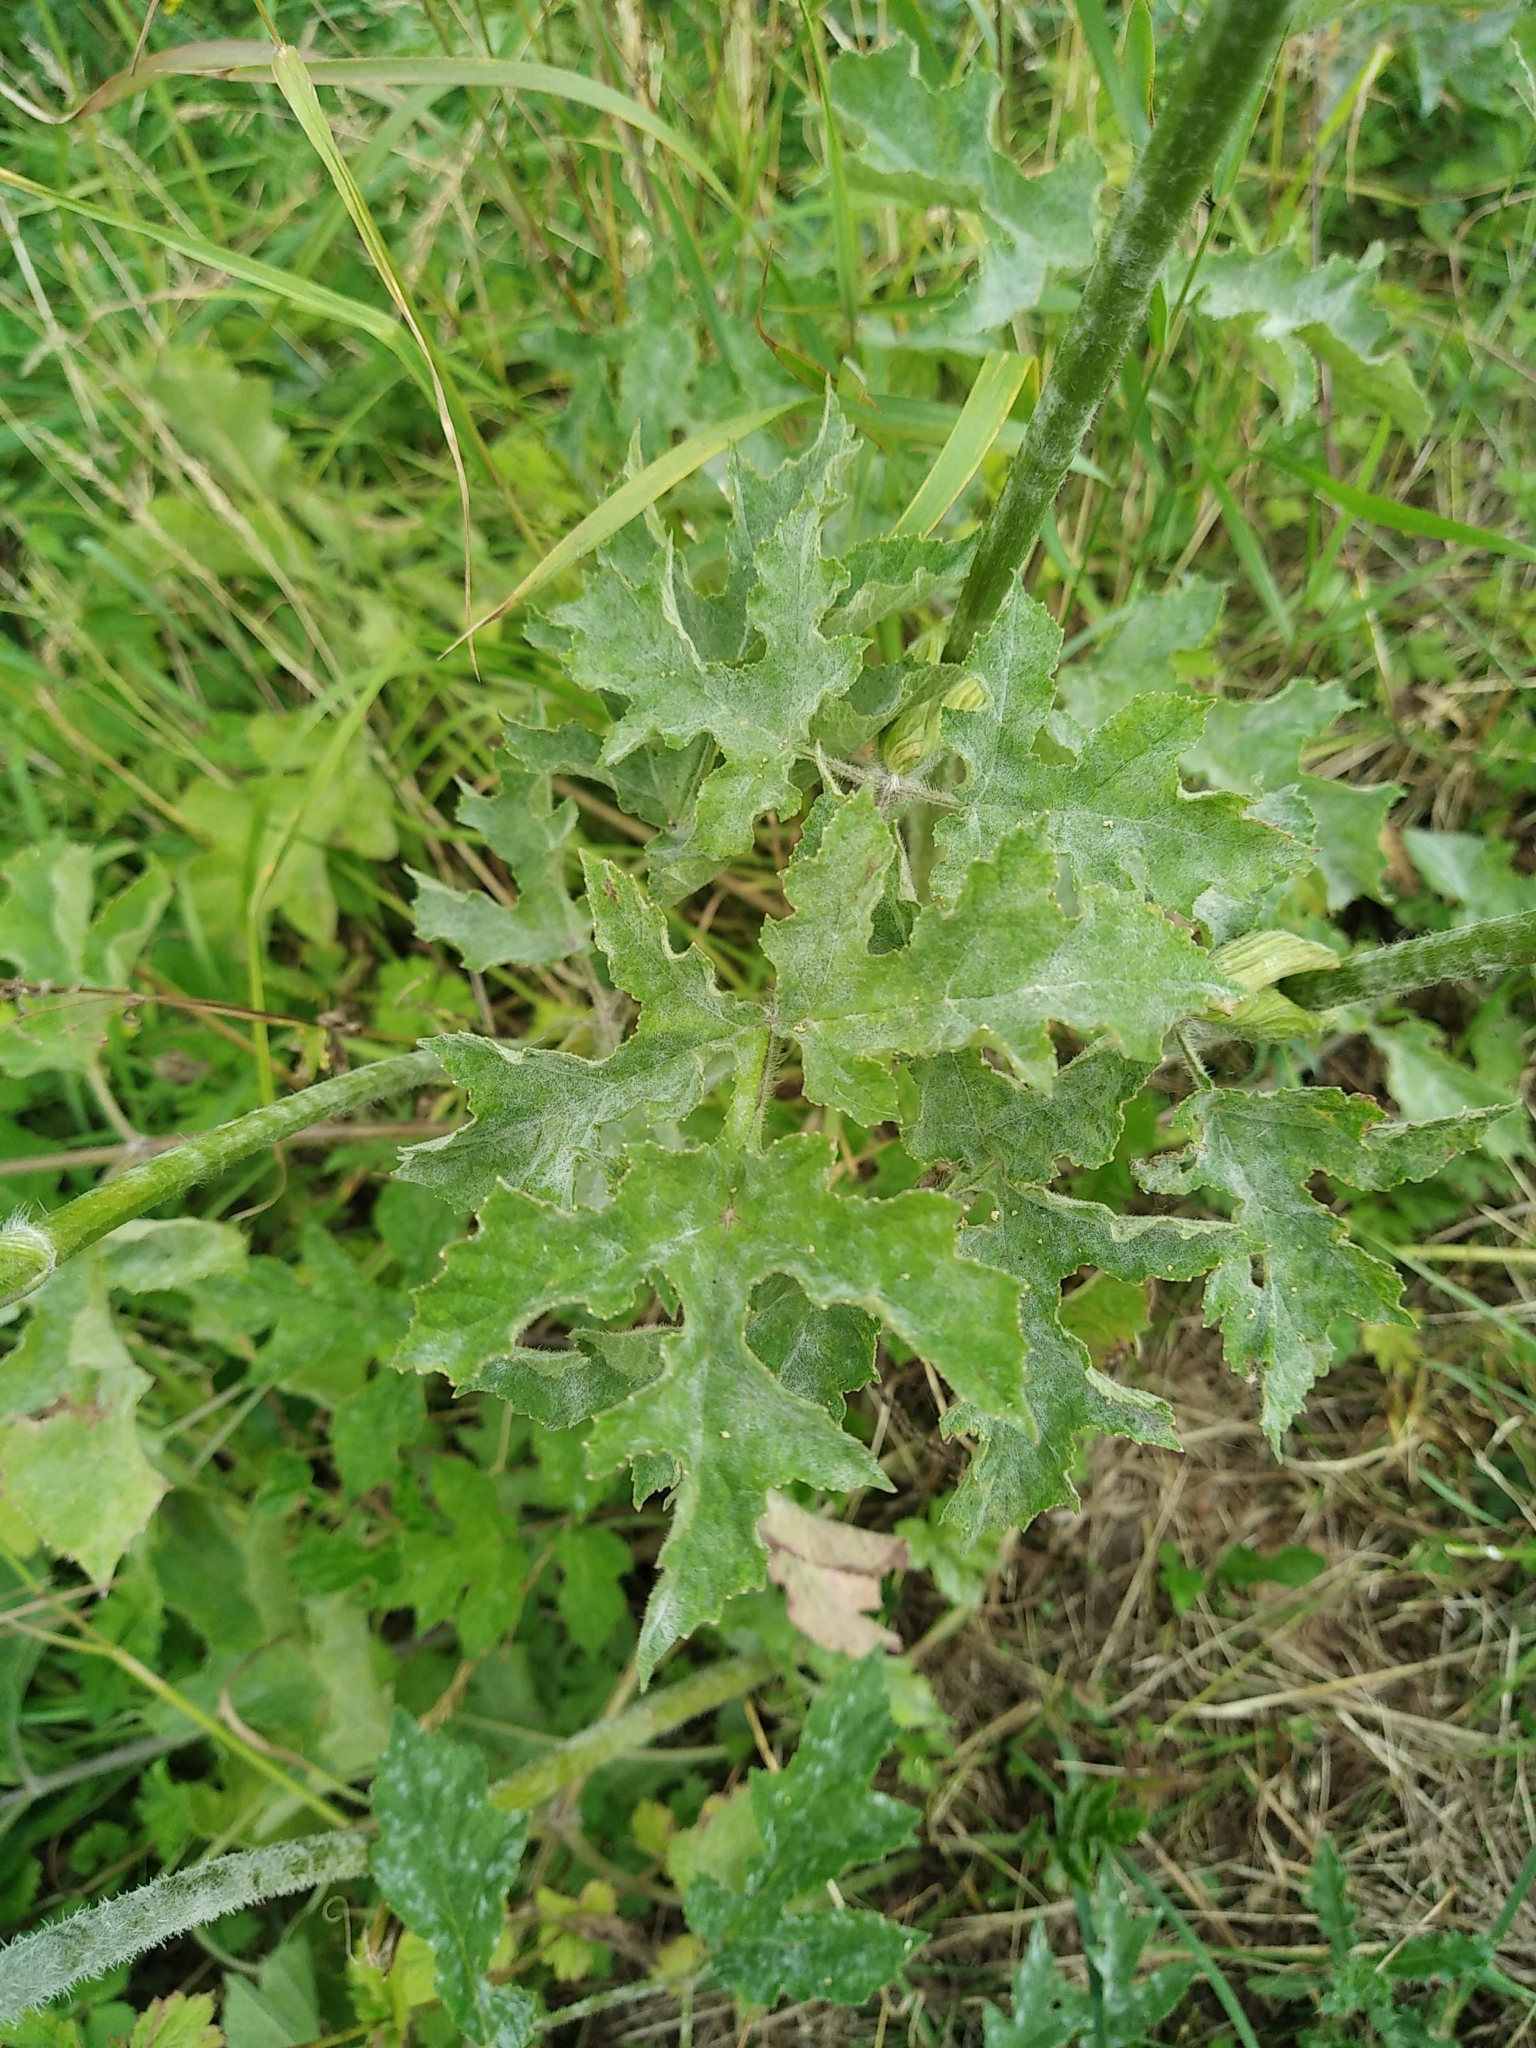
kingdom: Plantae
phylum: Tracheophyta
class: Magnoliopsida
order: Apiales
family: Apiaceae
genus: Heracleum
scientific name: Heracleum sphondylium
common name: Hogweed
